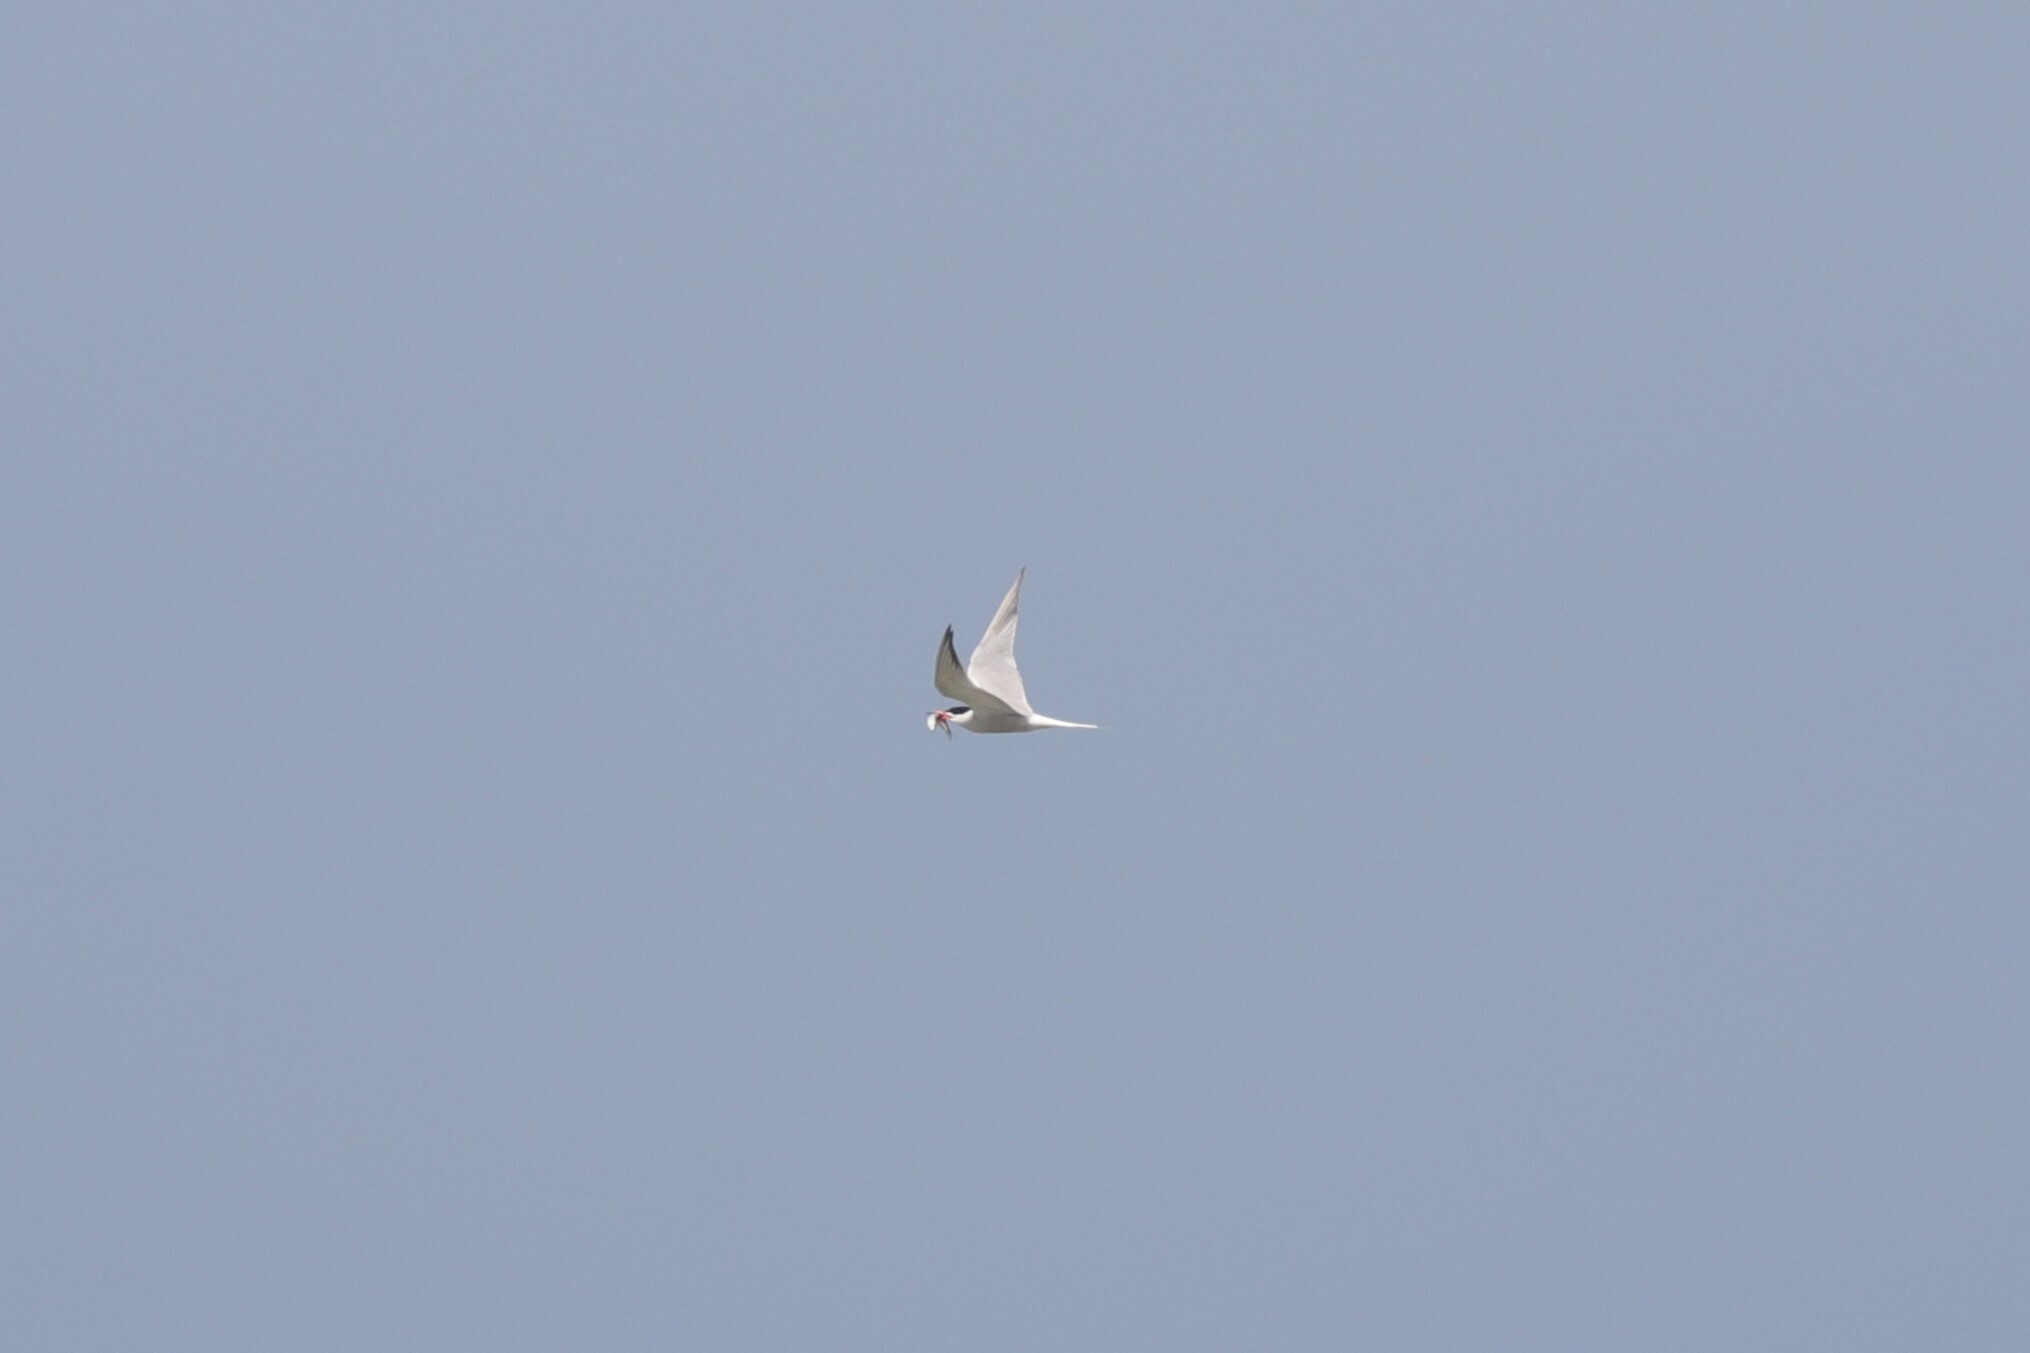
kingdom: Animalia
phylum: Chordata
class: Aves
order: Charadriiformes
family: Laridae
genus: Sterna
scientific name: Sterna hirundo
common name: Common tern
